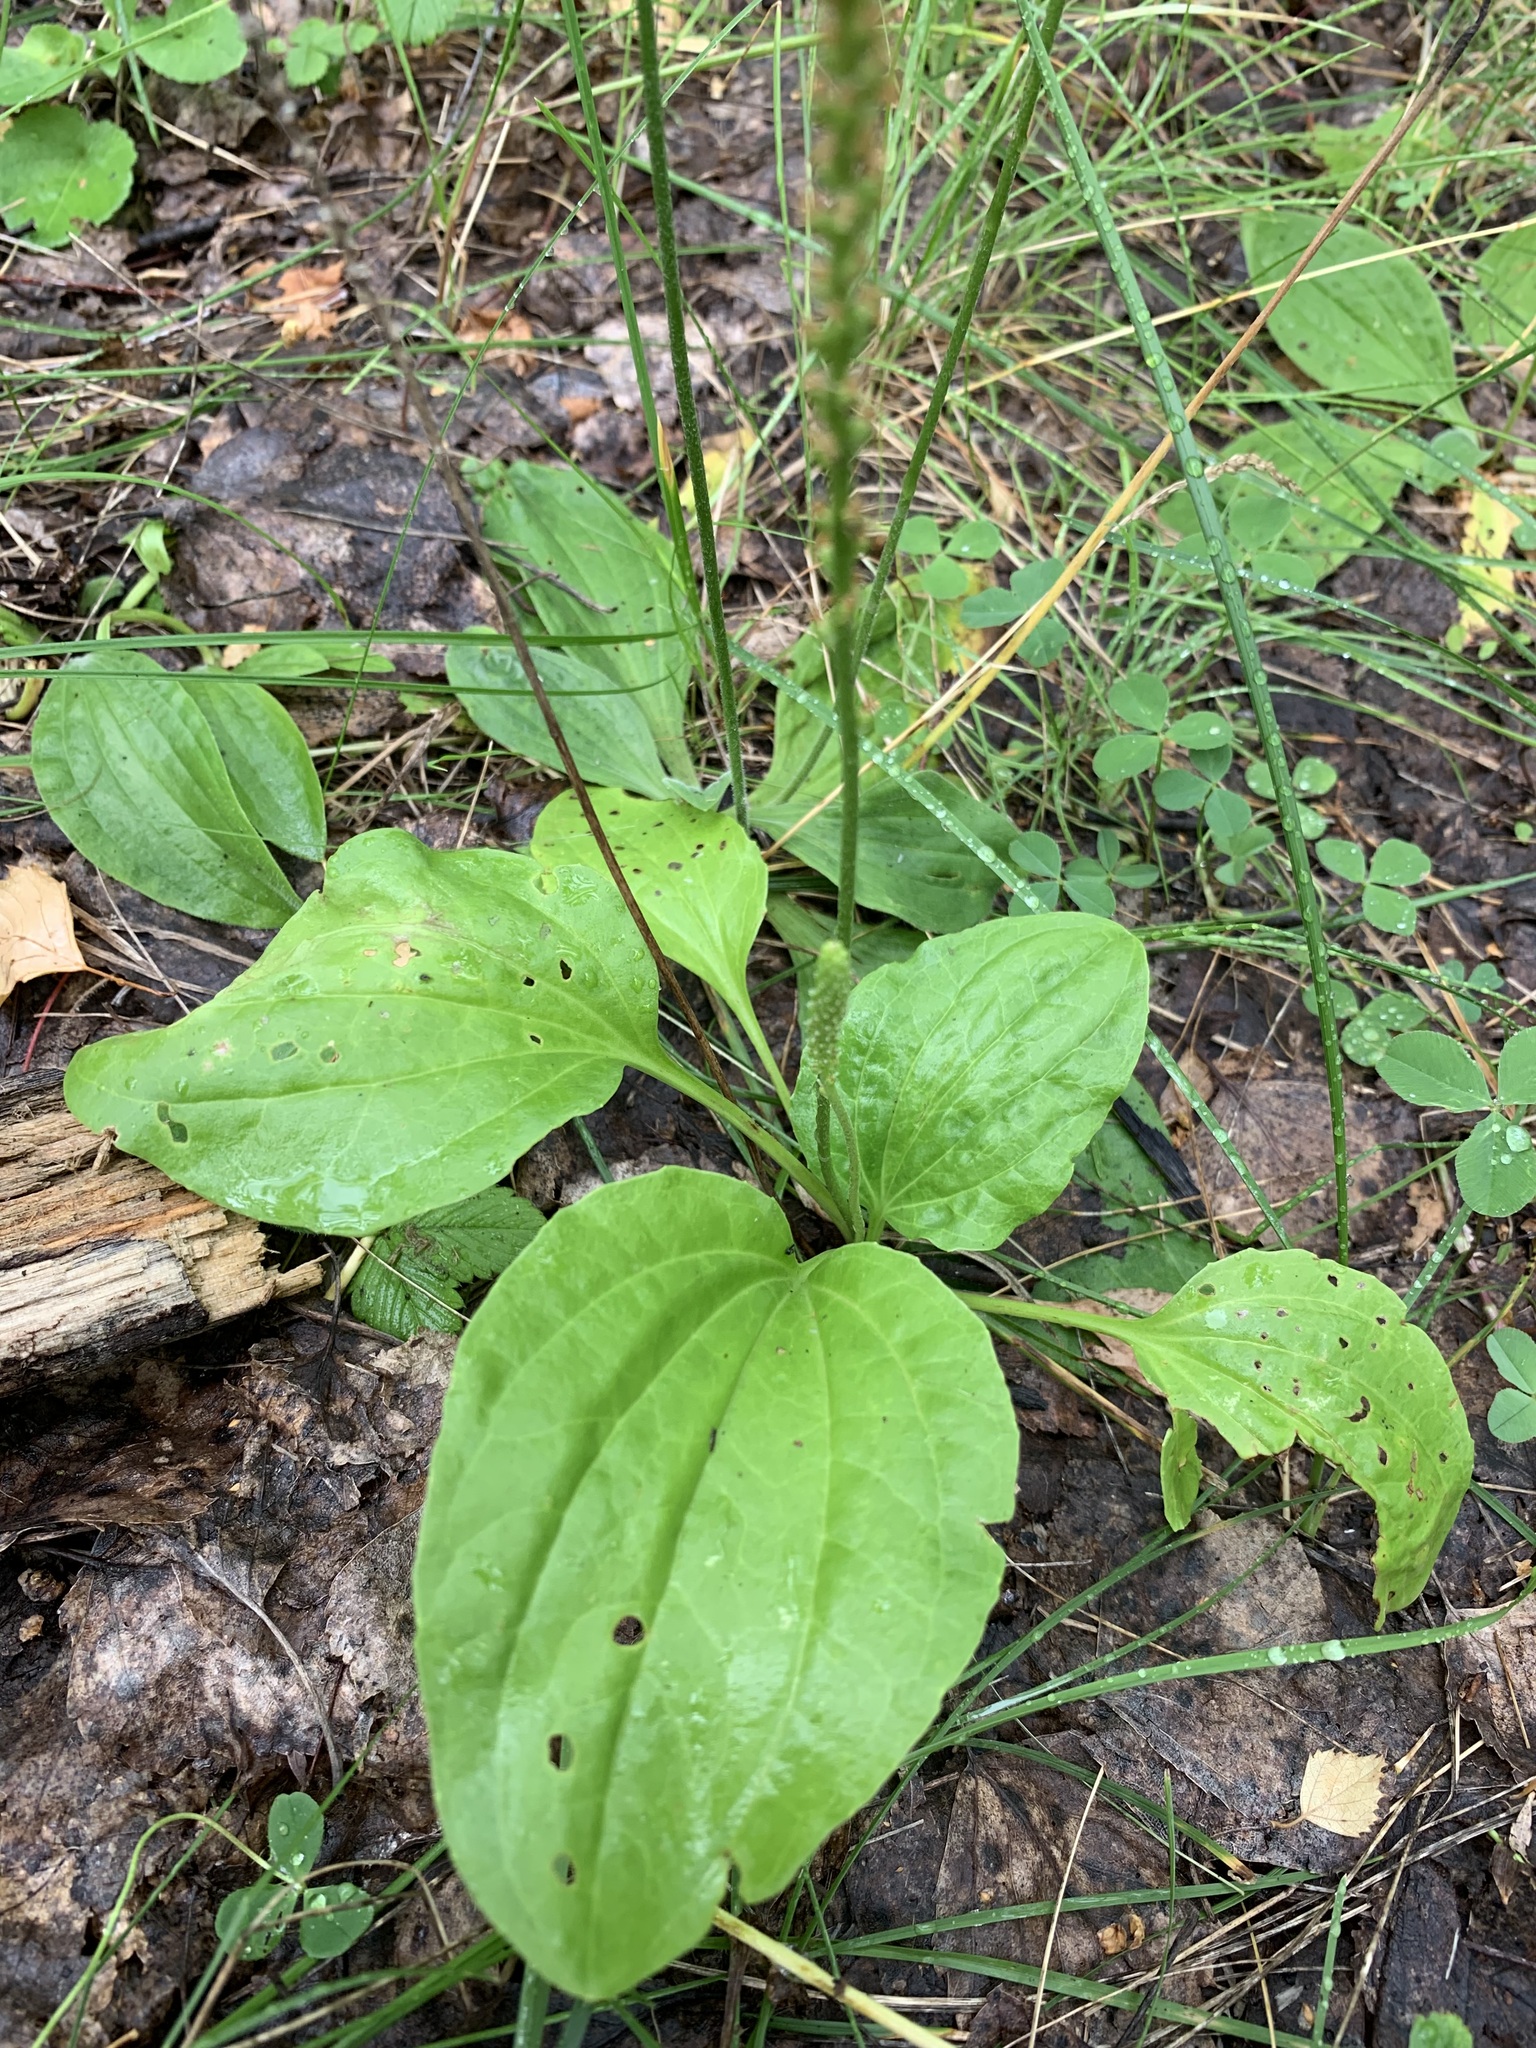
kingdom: Plantae
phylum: Tracheophyta
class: Magnoliopsida
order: Lamiales
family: Plantaginaceae
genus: Plantago
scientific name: Plantago major
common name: Common plantain
